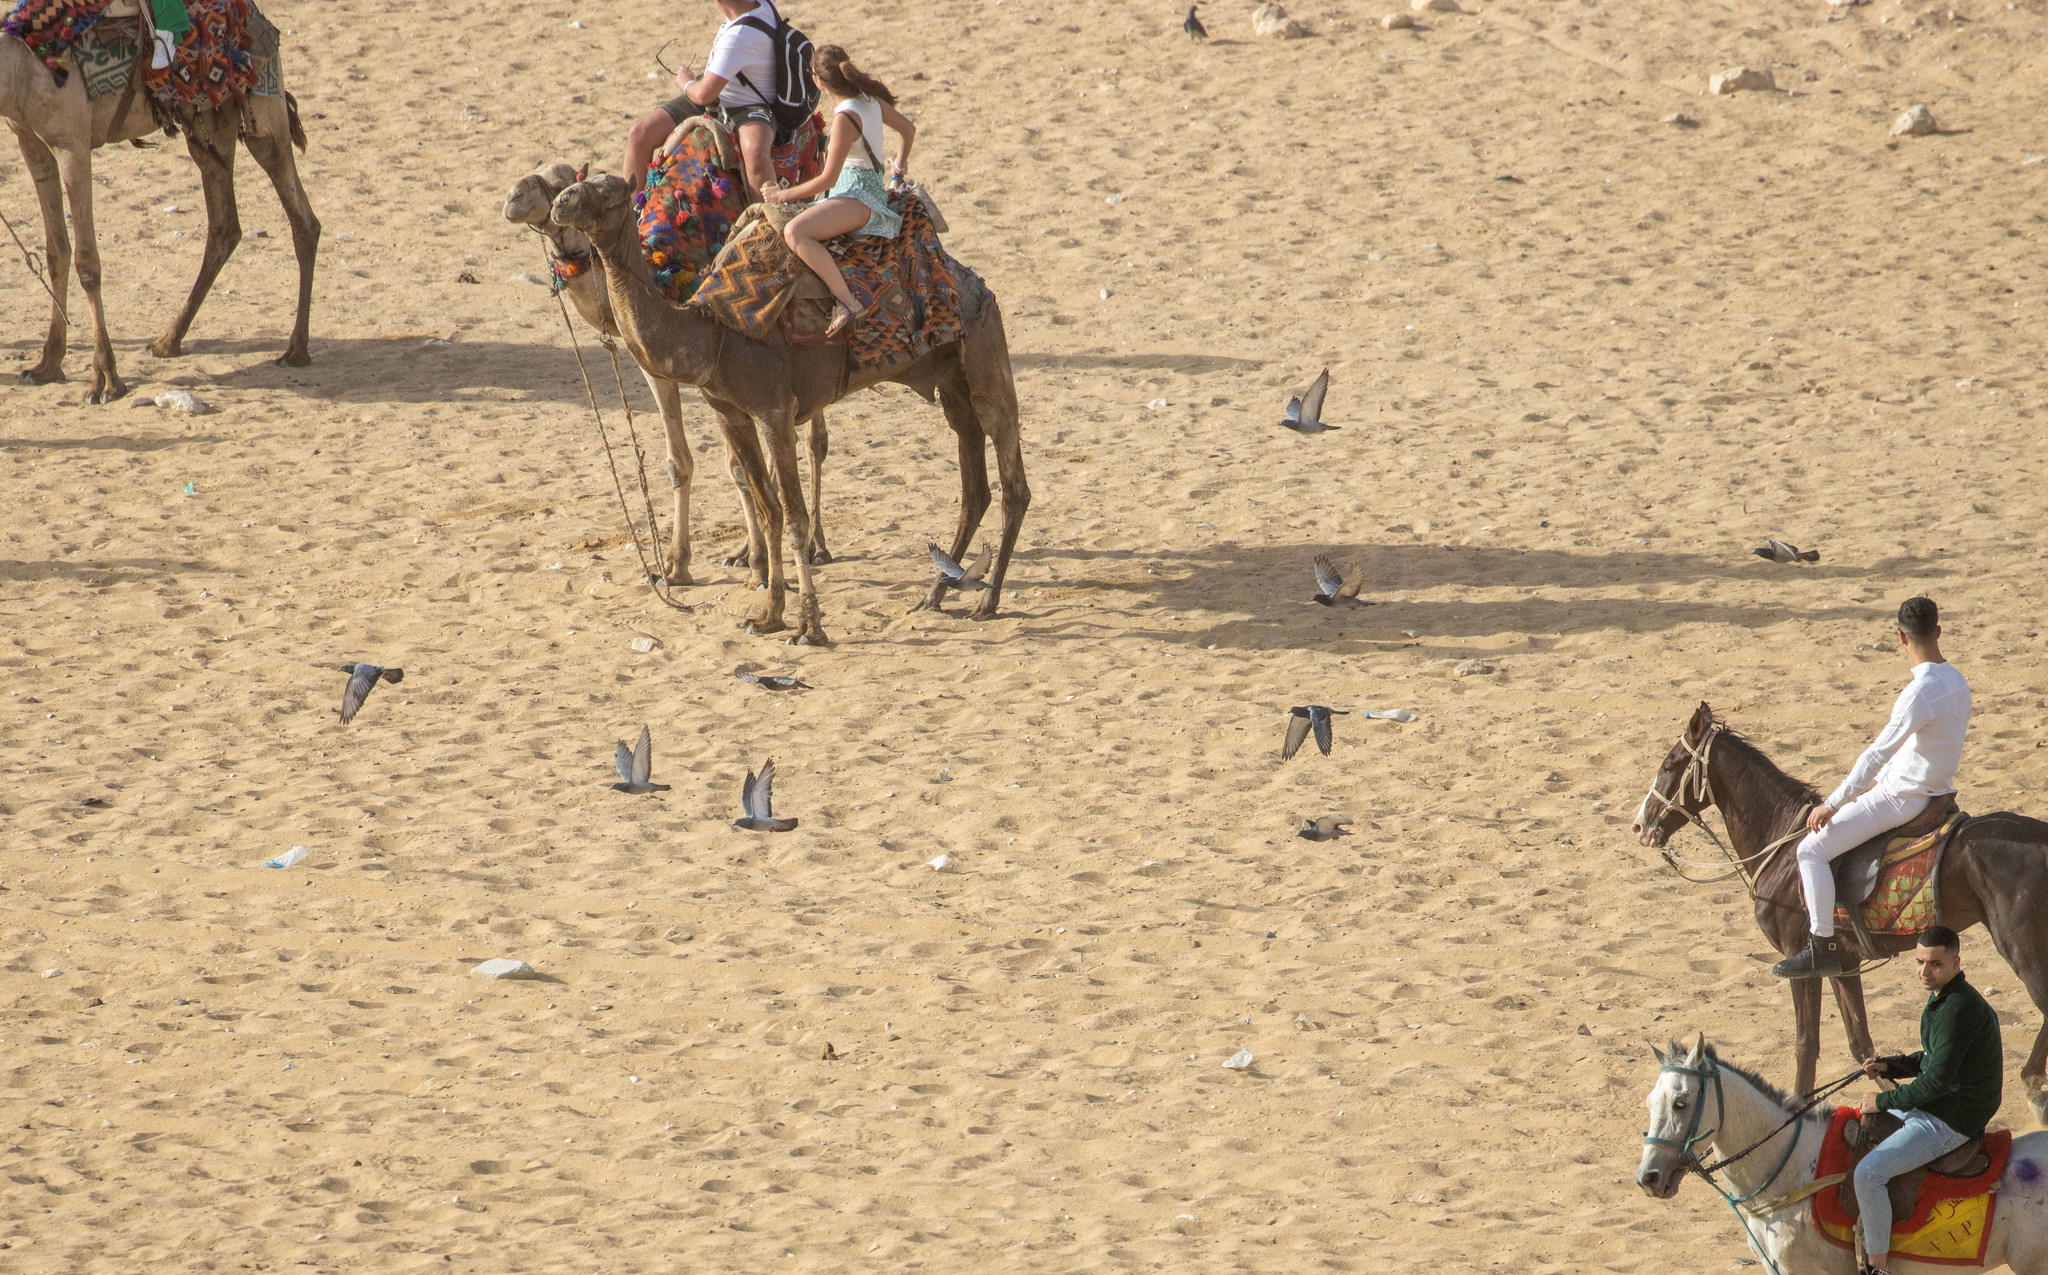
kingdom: Animalia
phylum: Chordata
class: Aves
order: Columbiformes
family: Columbidae
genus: Columba
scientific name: Columba livia
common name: Rock pigeon
